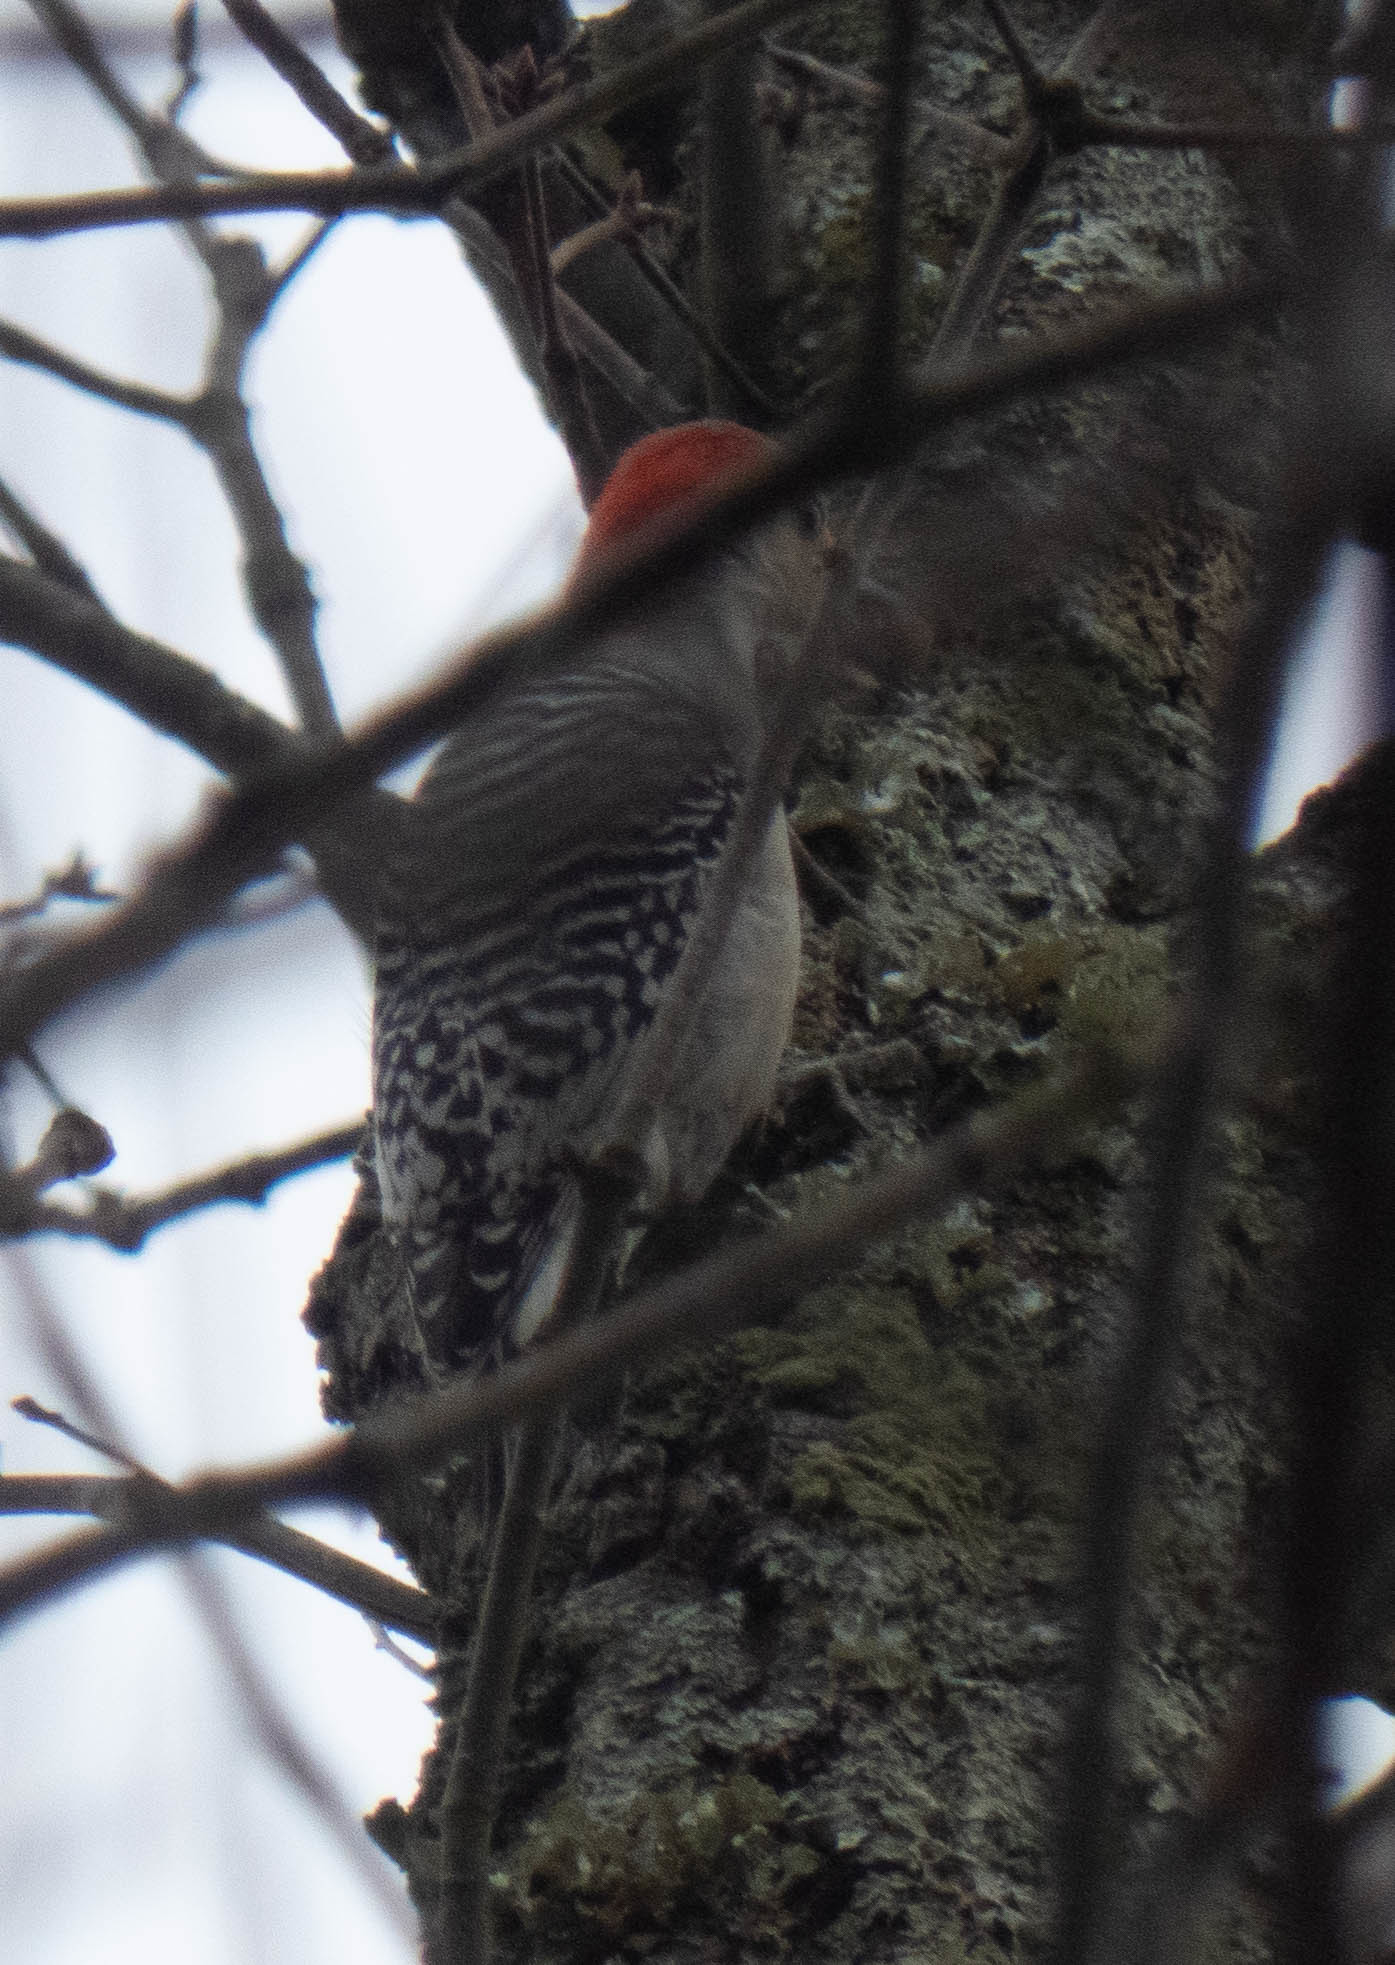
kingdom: Animalia
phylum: Chordata
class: Aves
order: Piciformes
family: Picidae
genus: Melanerpes
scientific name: Melanerpes carolinus
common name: Red-bellied woodpecker
